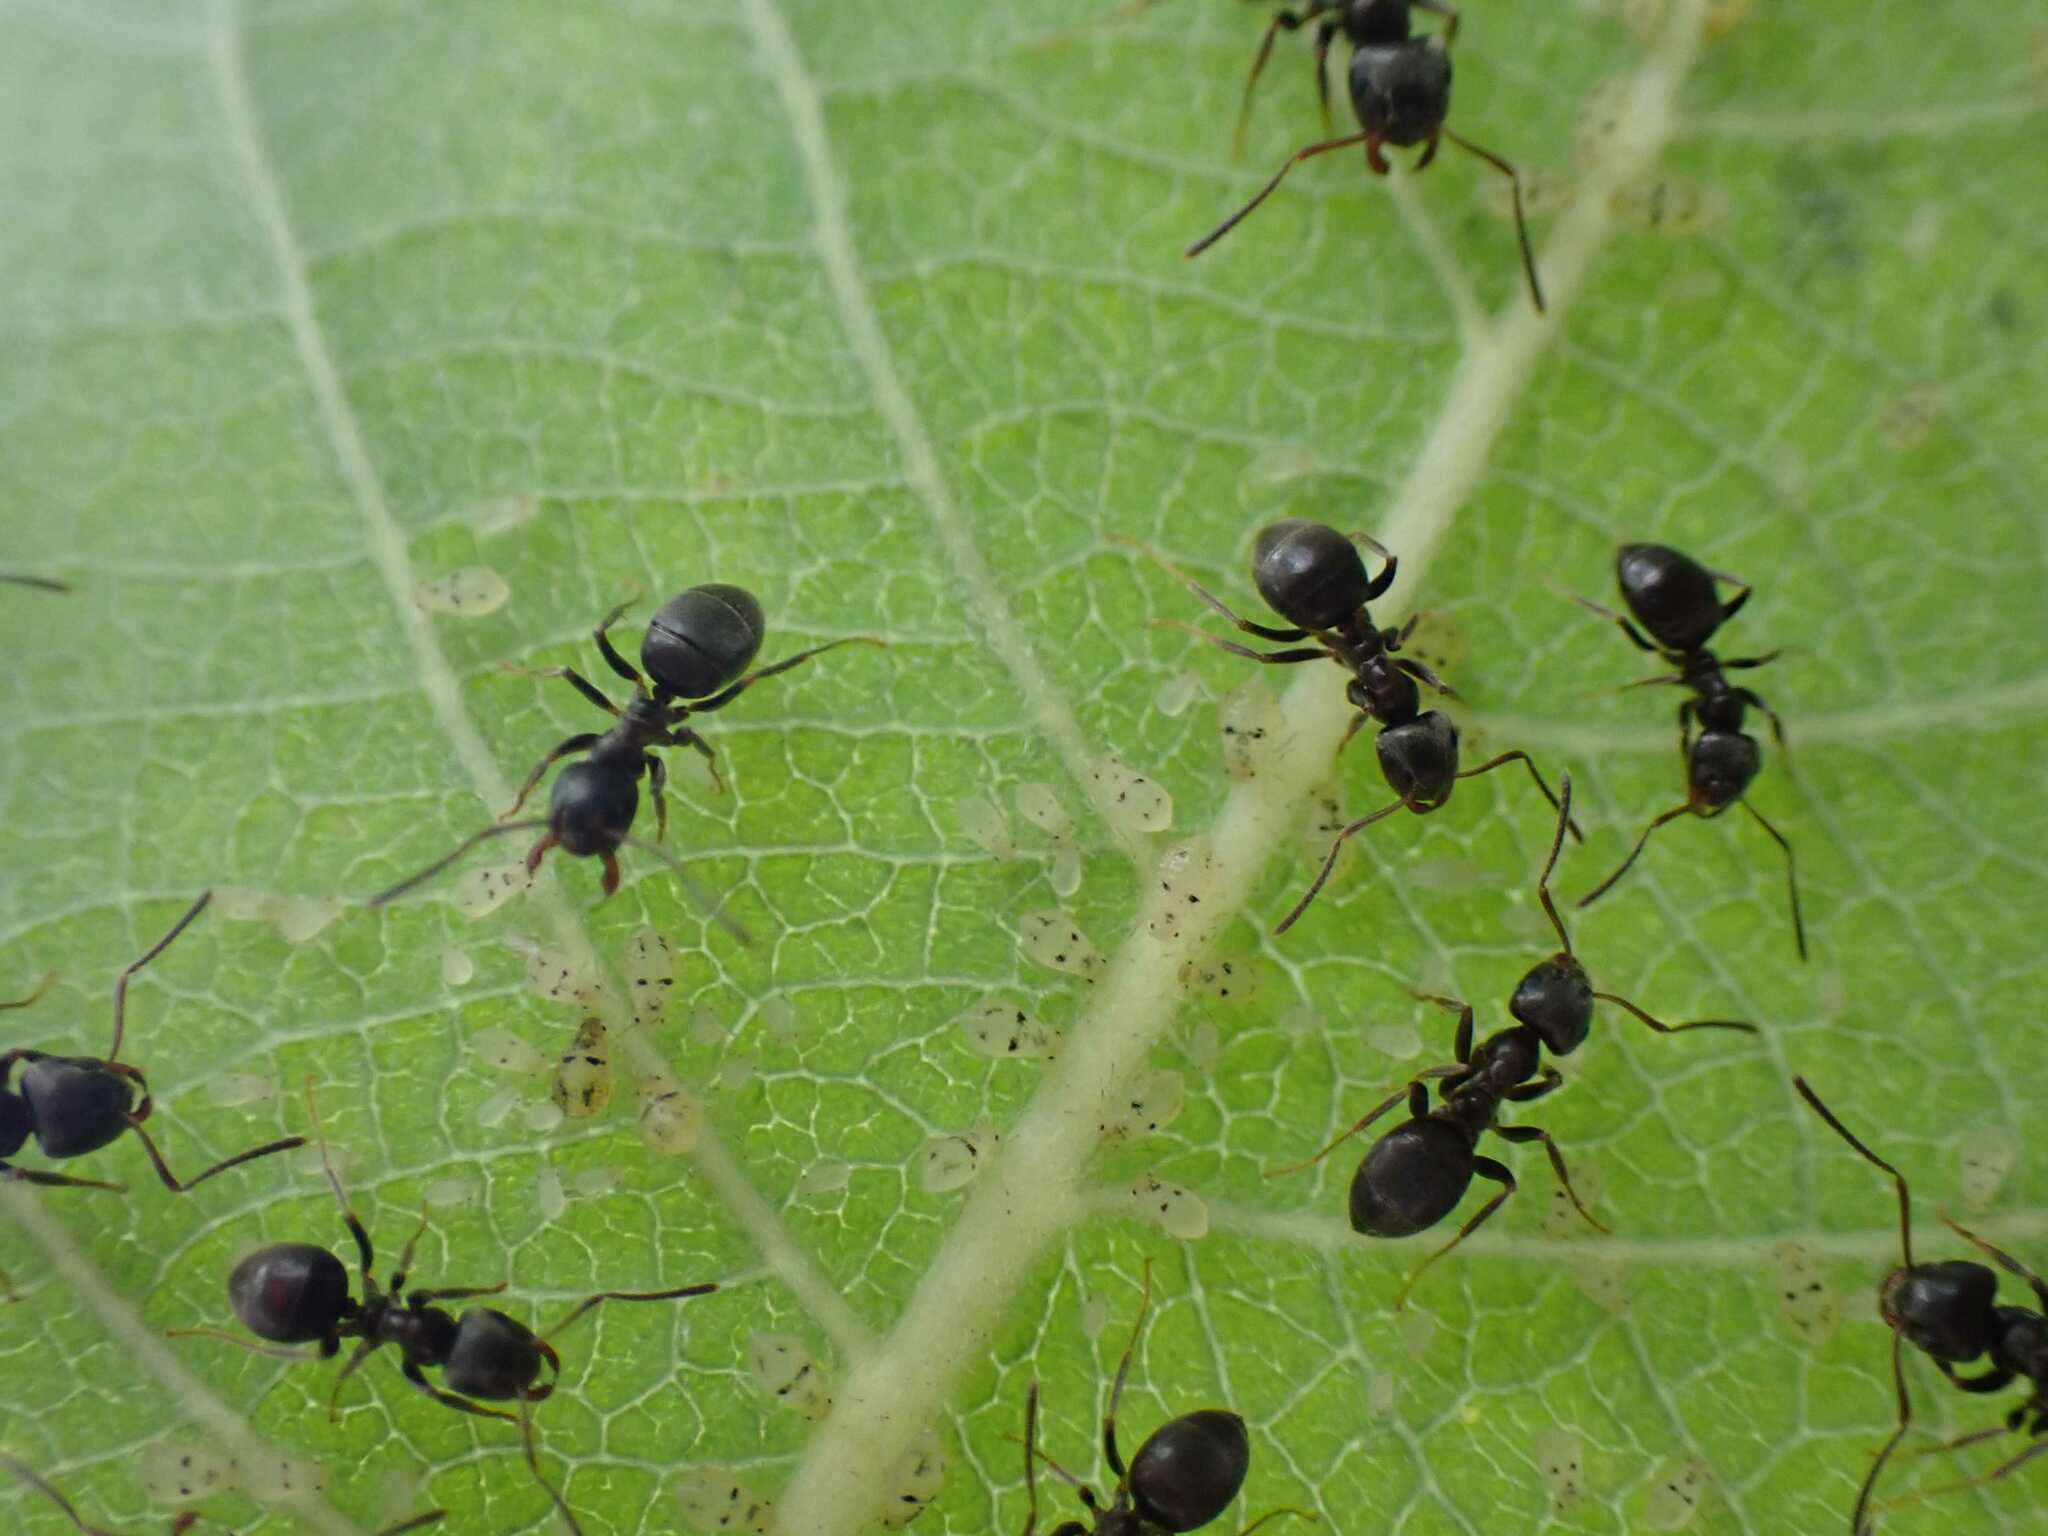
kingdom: Animalia
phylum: Arthropoda
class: Insecta
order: Hymenoptera
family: Formicidae
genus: Lasius
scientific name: Lasius
